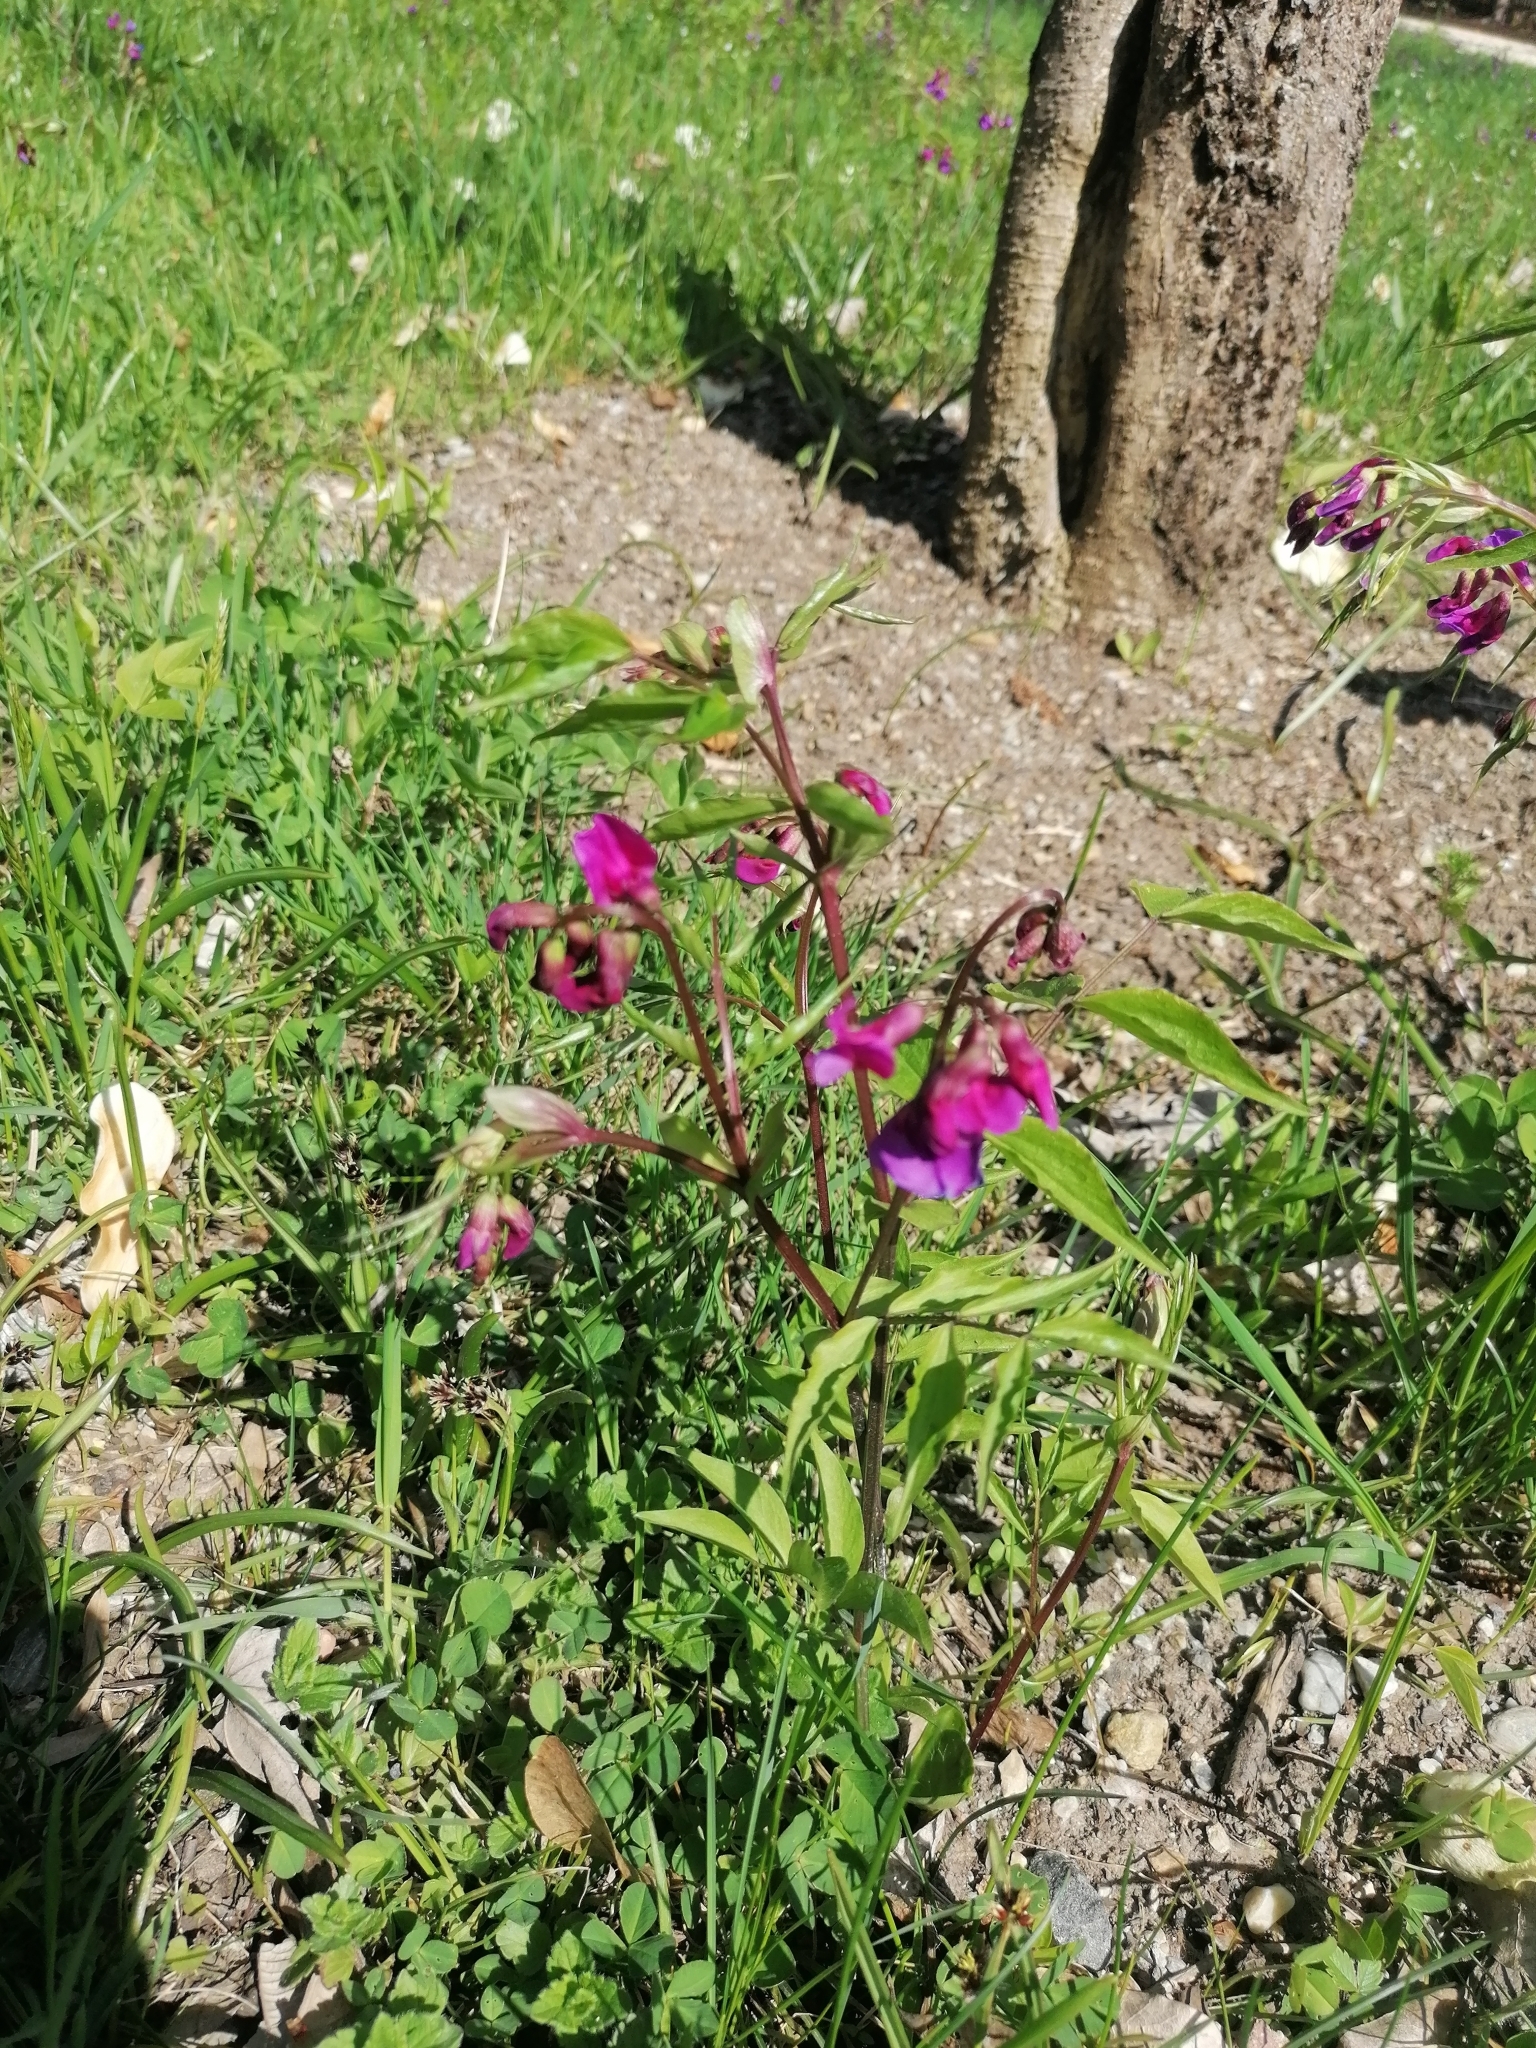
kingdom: Plantae
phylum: Tracheophyta
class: Magnoliopsida
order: Fabales
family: Fabaceae
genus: Lathyrus
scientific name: Lathyrus vernus
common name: Spring pea
